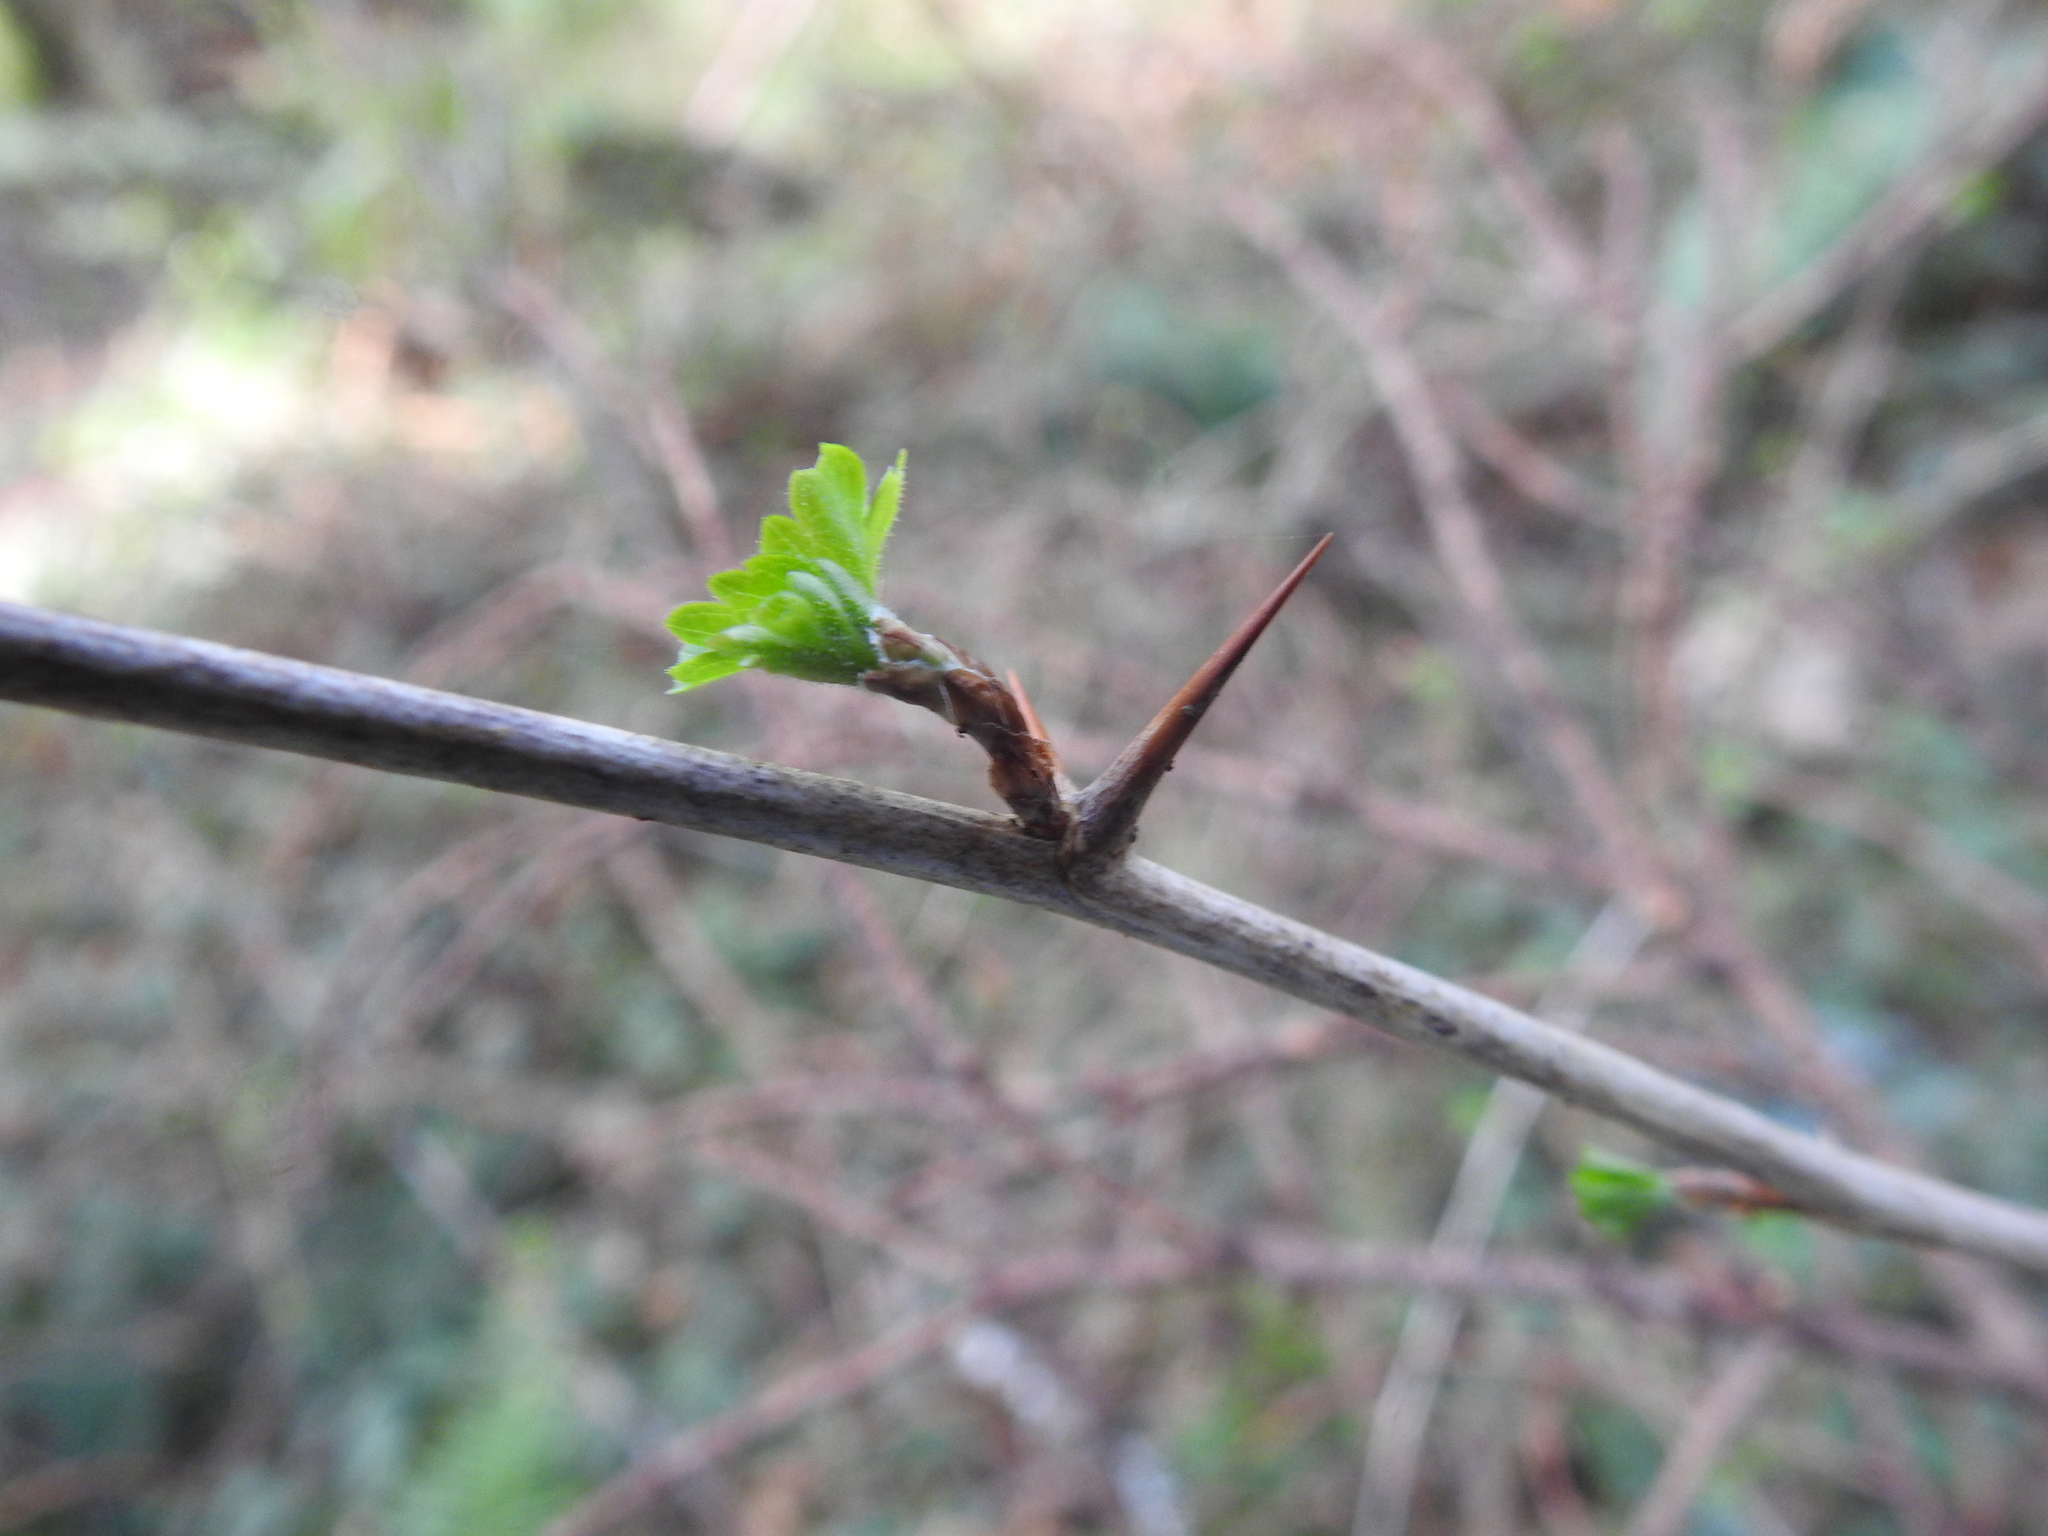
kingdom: Plantae
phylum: Tracheophyta
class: Magnoliopsida
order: Saxifragales
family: Grossulariaceae
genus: Ribes
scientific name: Ribes divaricatum
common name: Wild black gooseberry
